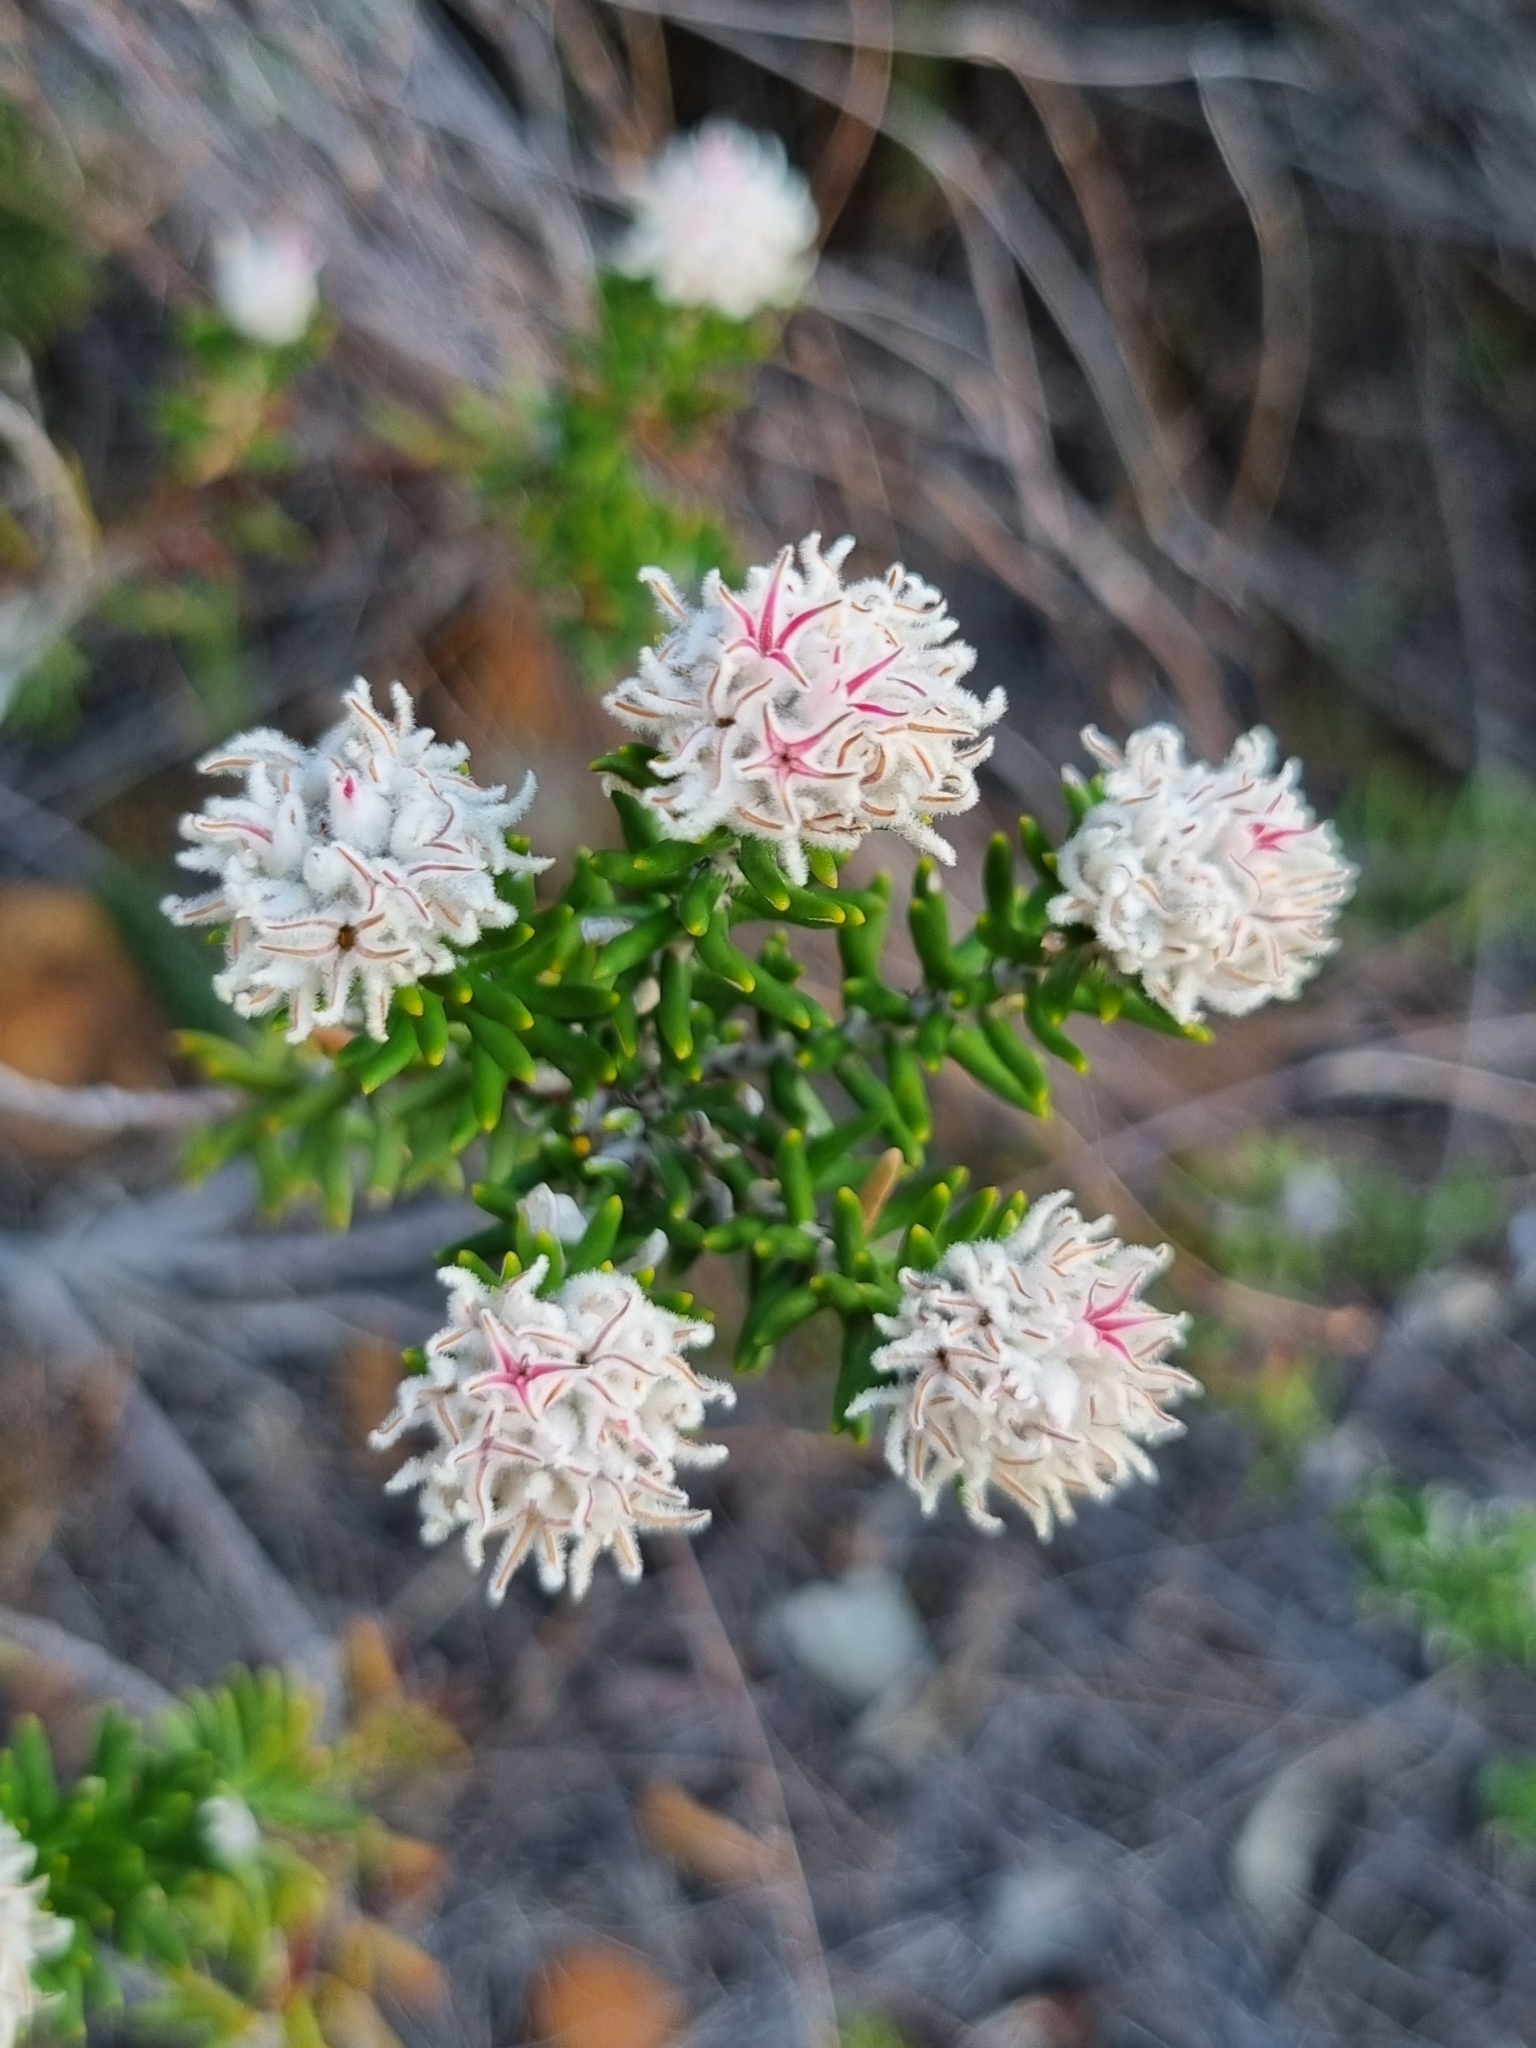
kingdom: Plantae
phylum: Tracheophyta
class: Magnoliopsida
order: Rosales
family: Rhamnaceae
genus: Trichocephalus
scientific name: Trichocephalus stipularis
